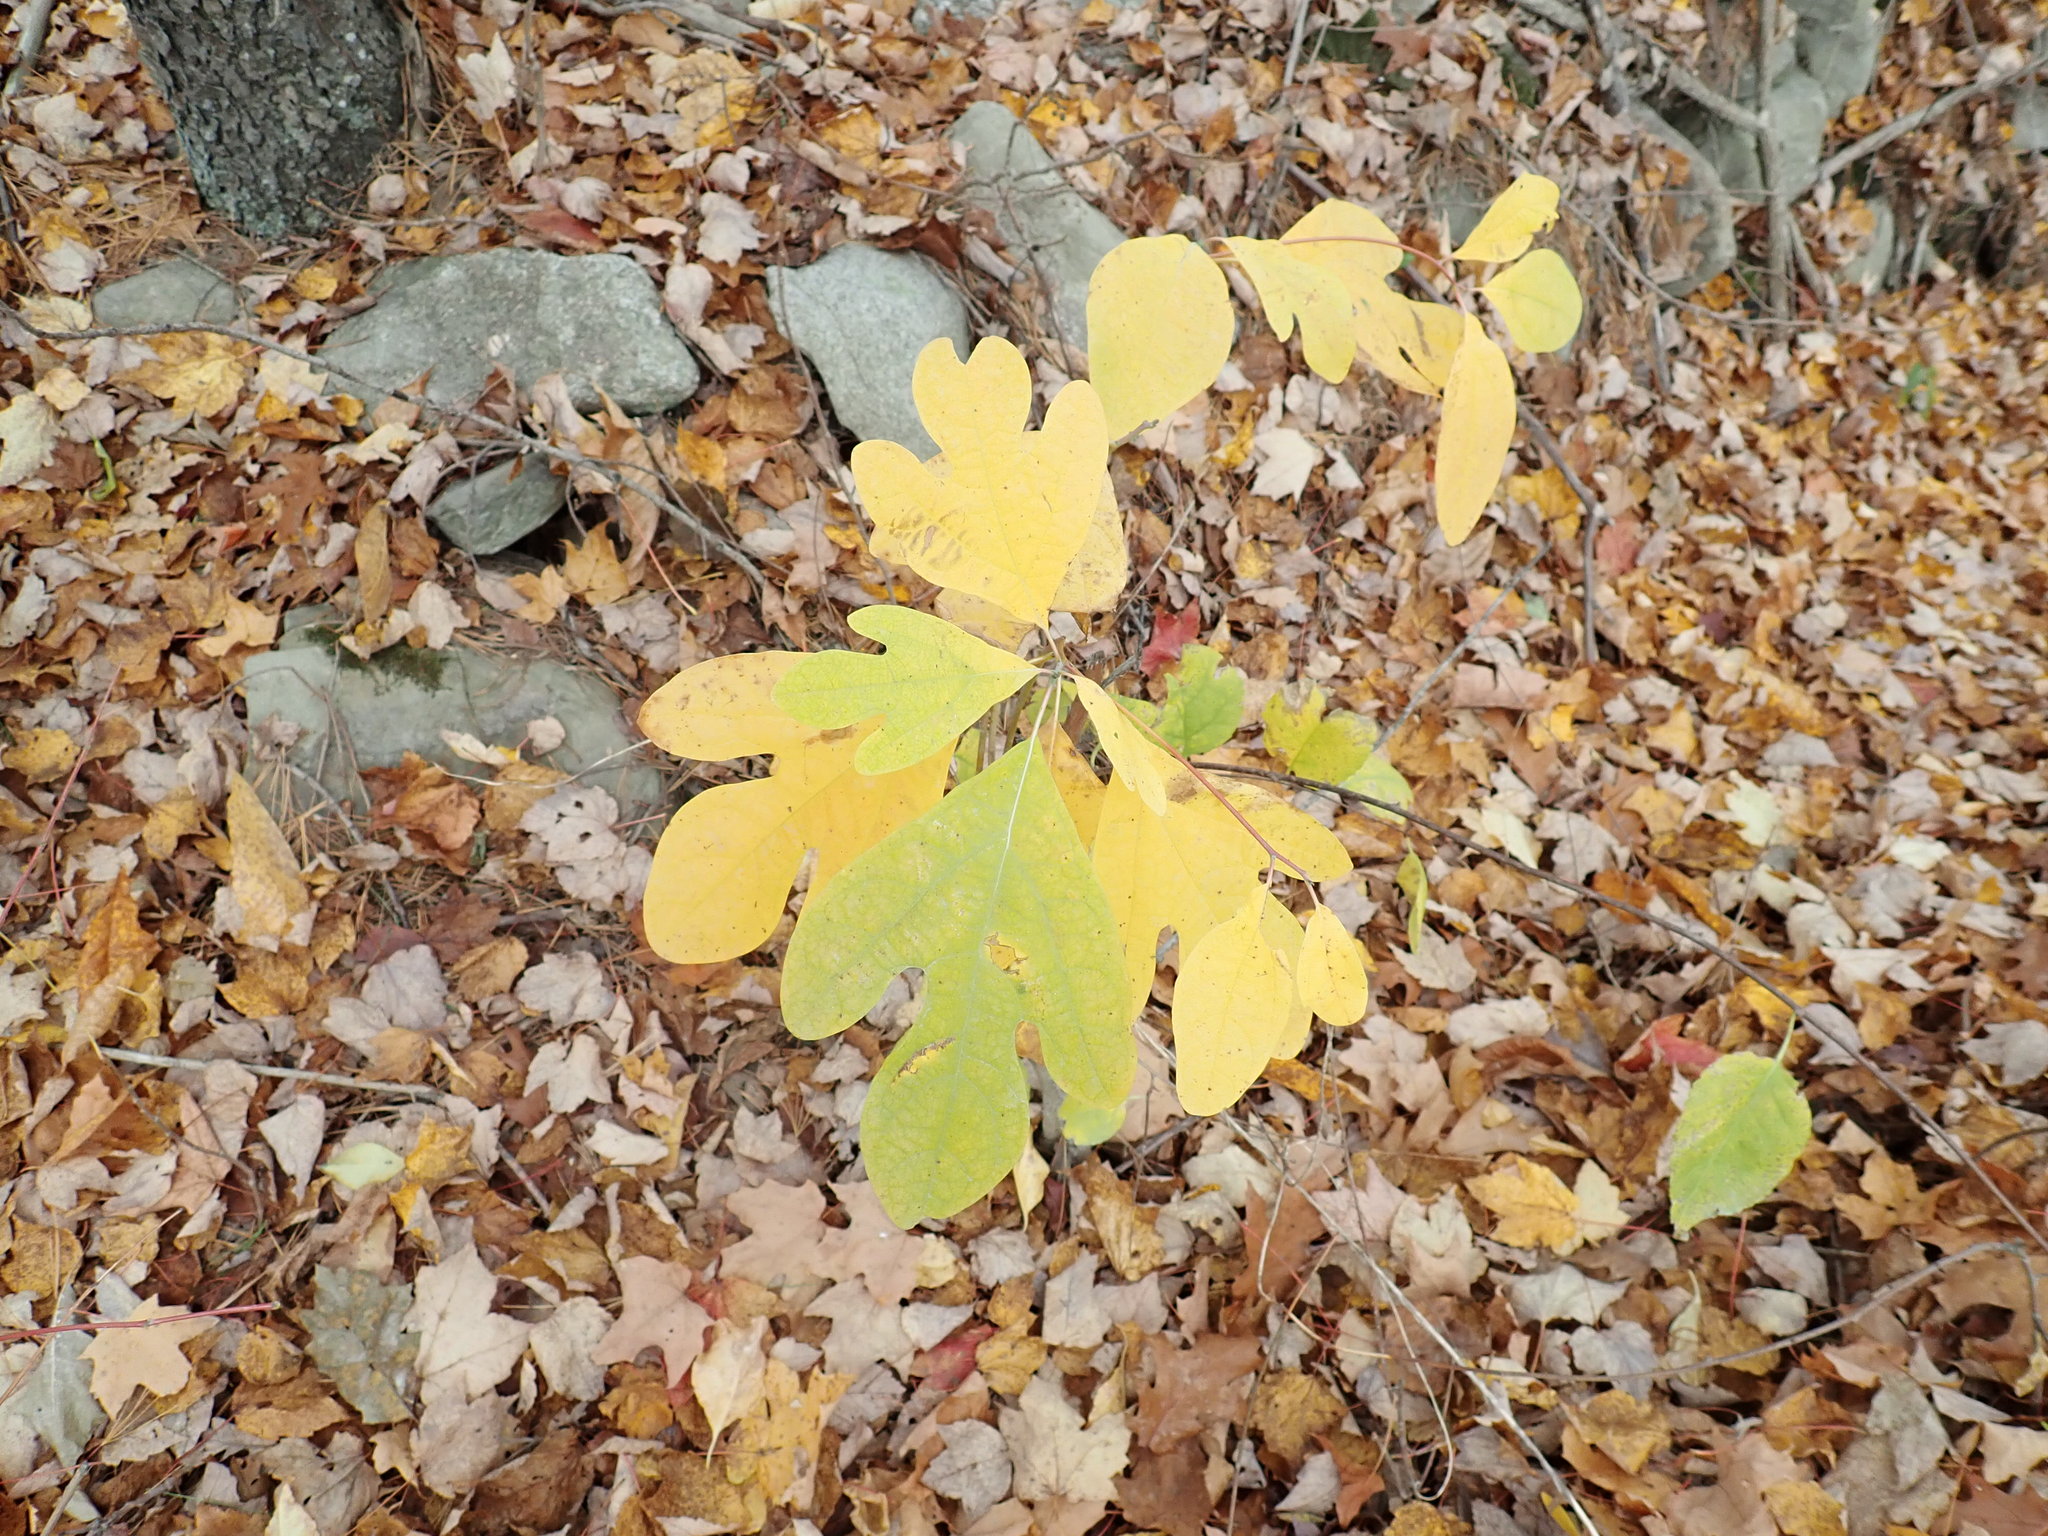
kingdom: Plantae
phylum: Tracheophyta
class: Magnoliopsida
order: Laurales
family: Lauraceae
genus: Sassafras
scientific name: Sassafras albidum
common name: Sassafras
